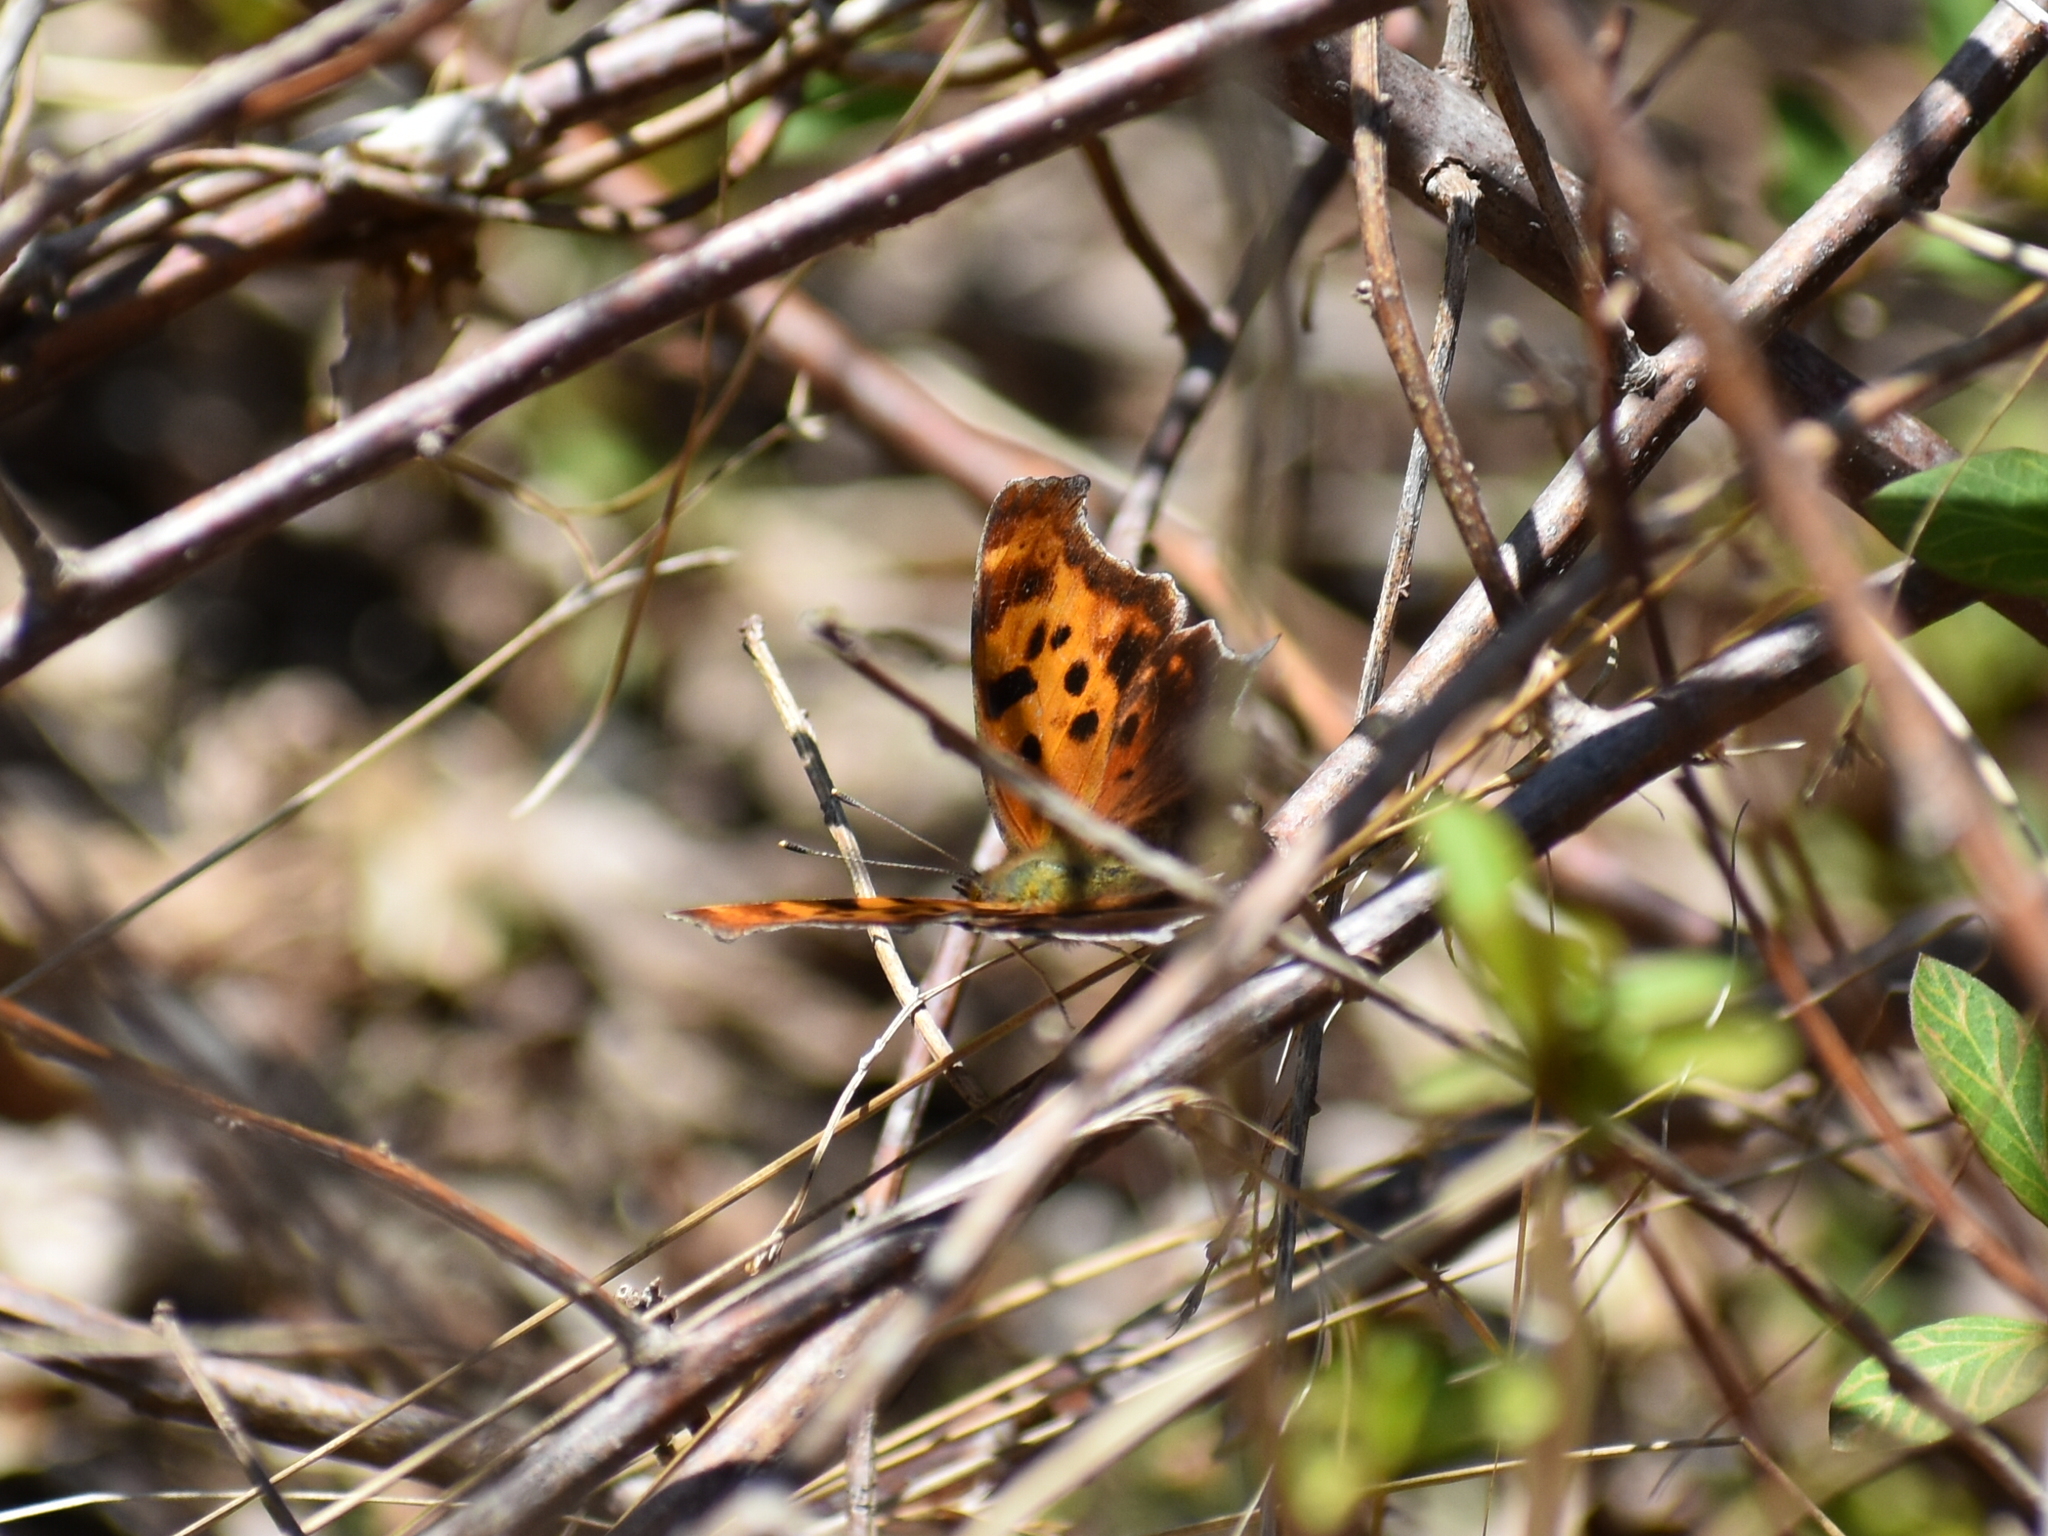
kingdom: Animalia
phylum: Arthropoda
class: Insecta
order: Lepidoptera
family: Nymphalidae
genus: Polygonia
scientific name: Polygonia interrogationis
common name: Question mark
